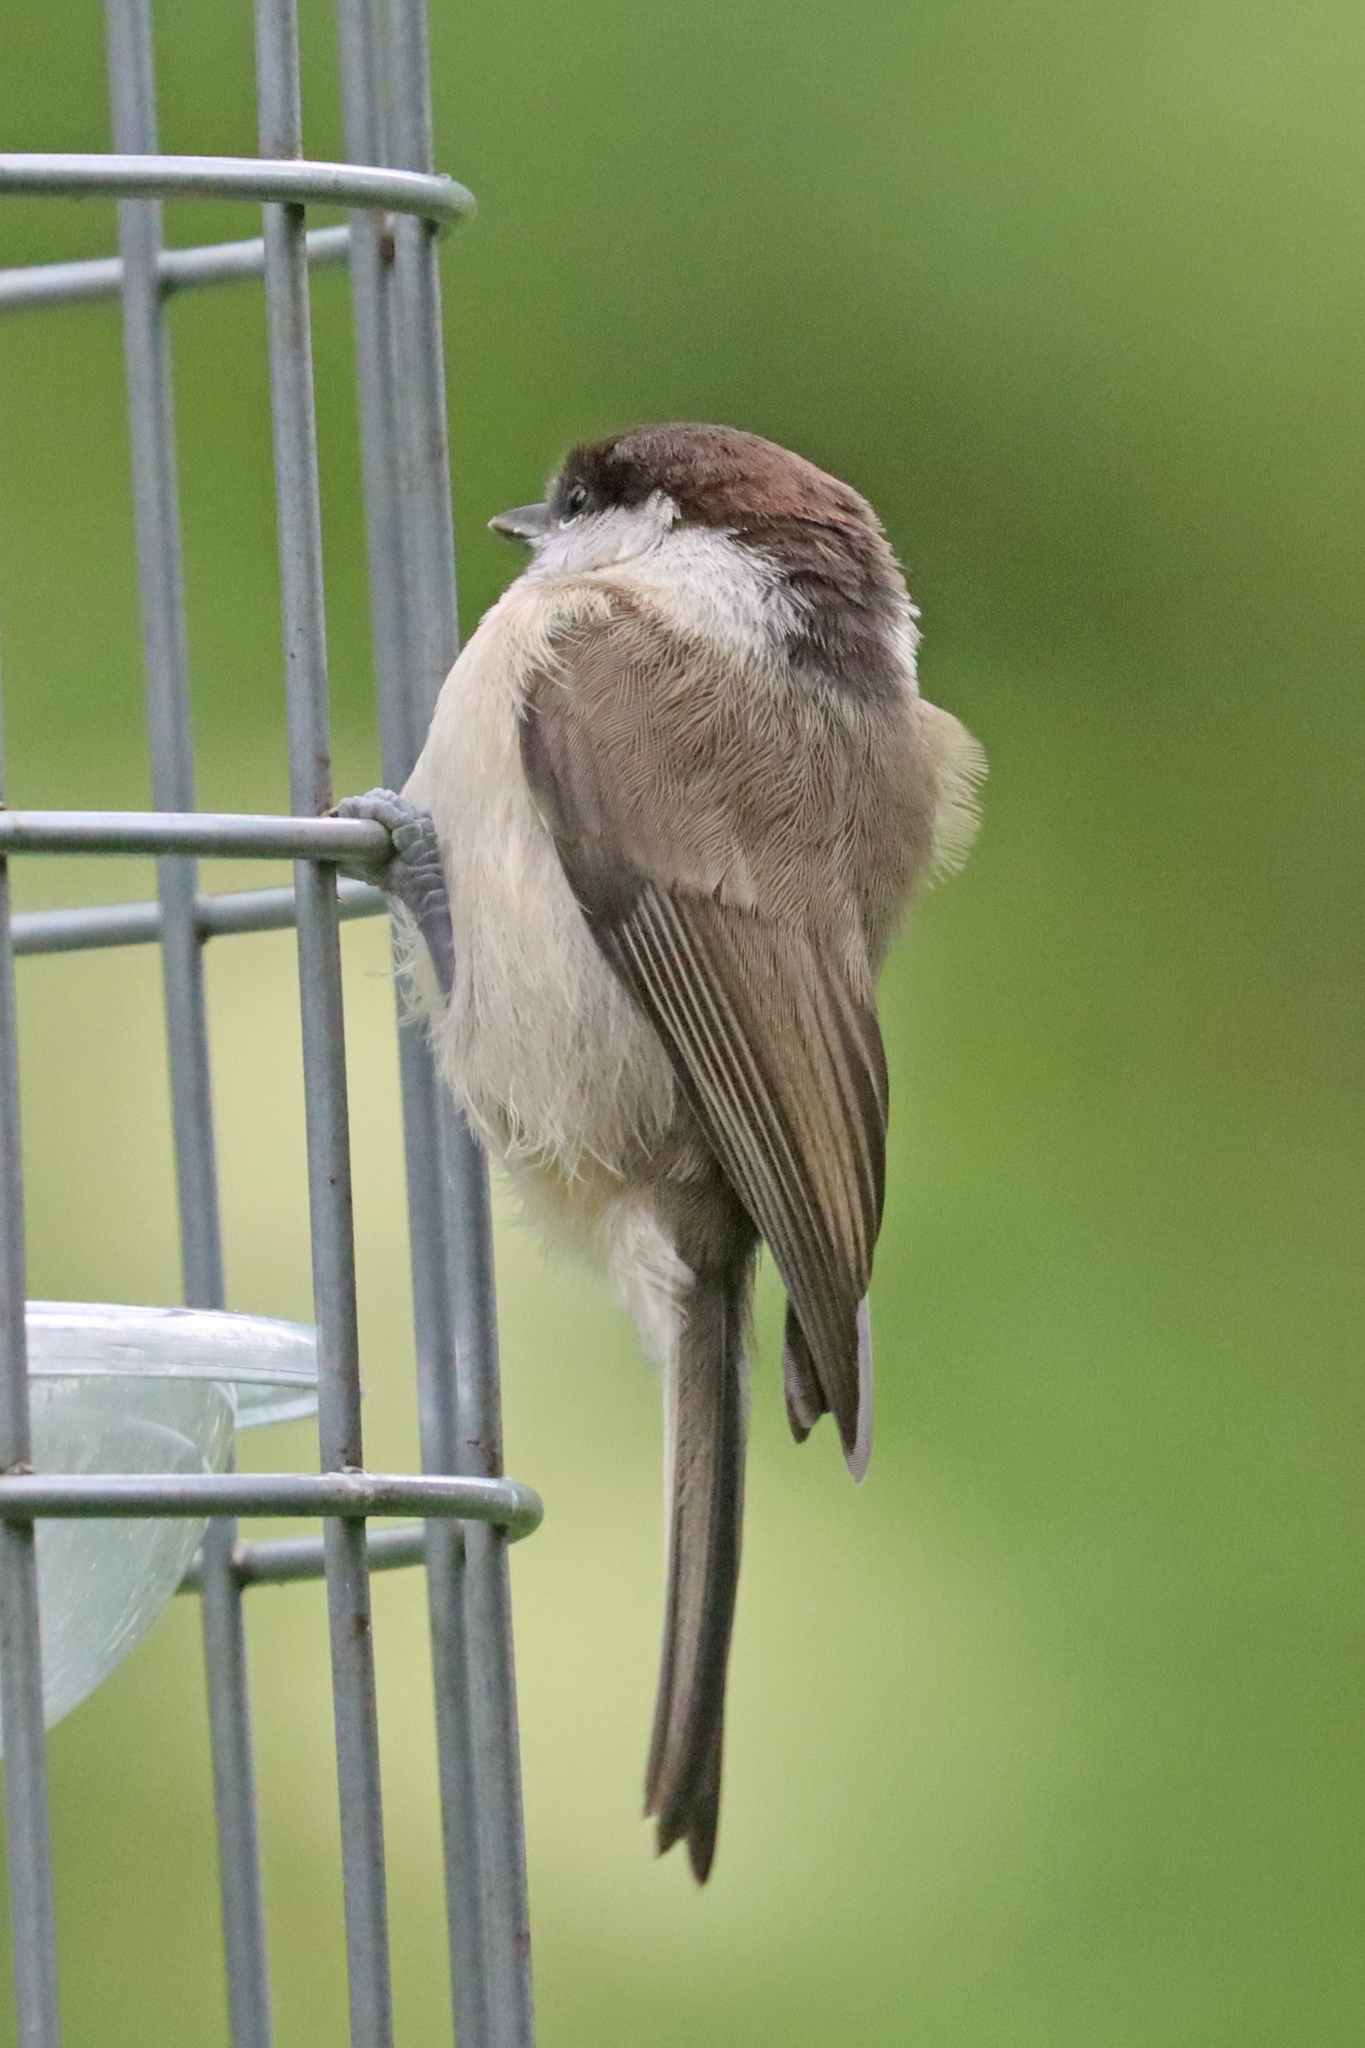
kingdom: Animalia
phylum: Chordata
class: Aves
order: Passeriformes
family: Paridae
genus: Poecile
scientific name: Poecile palustris
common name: Marsh tit
